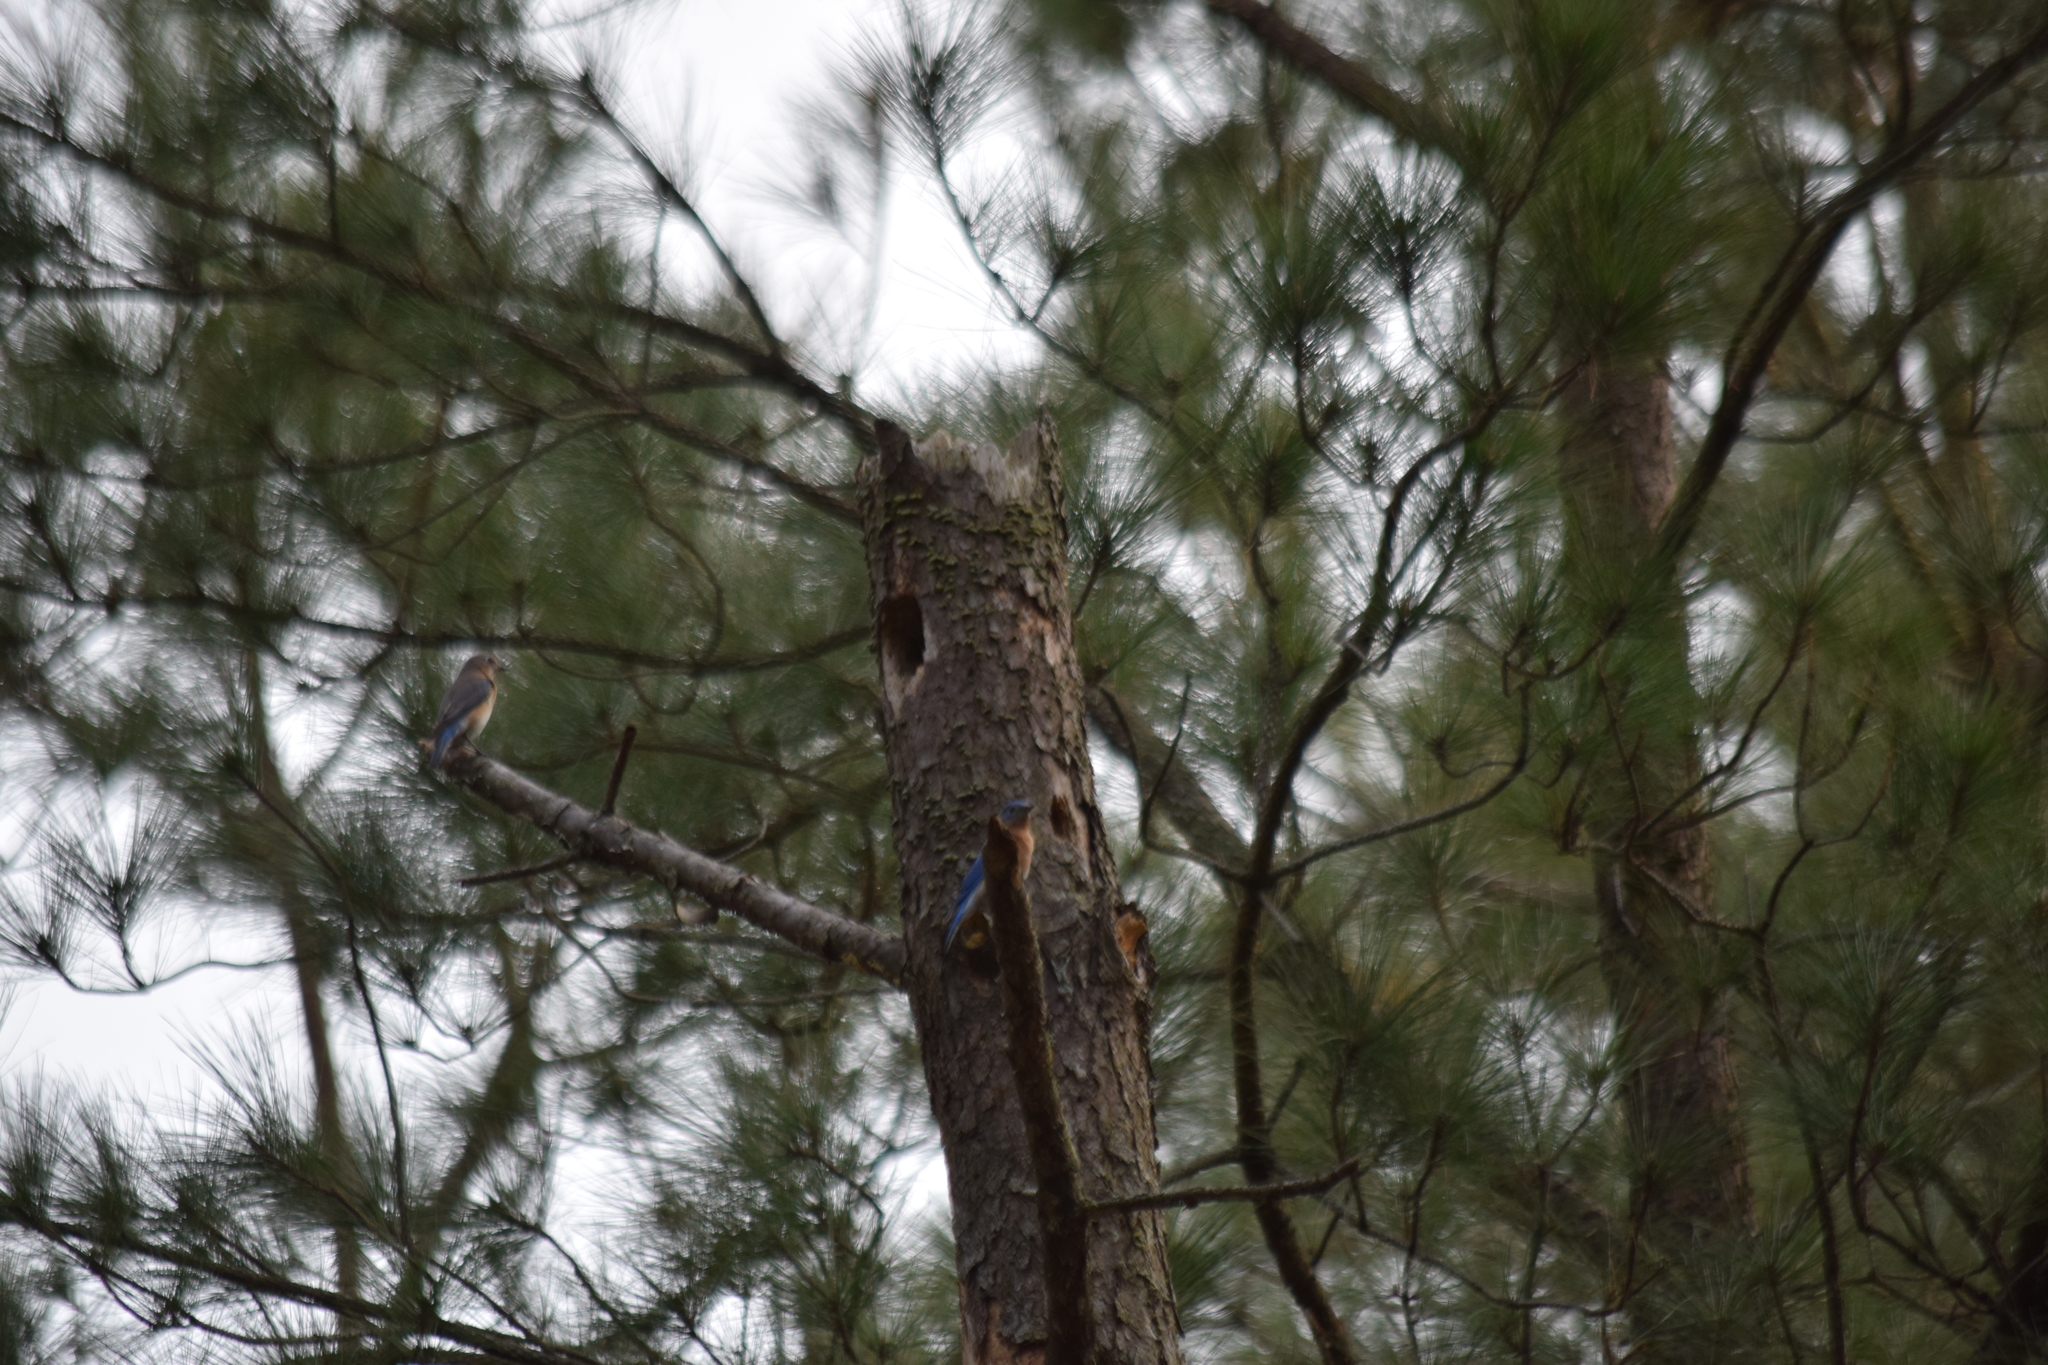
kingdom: Animalia
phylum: Chordata
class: Aves
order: Passeriformes
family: Turdidae
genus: Sialia
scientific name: Sialia sialis
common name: Eastern bluebird
